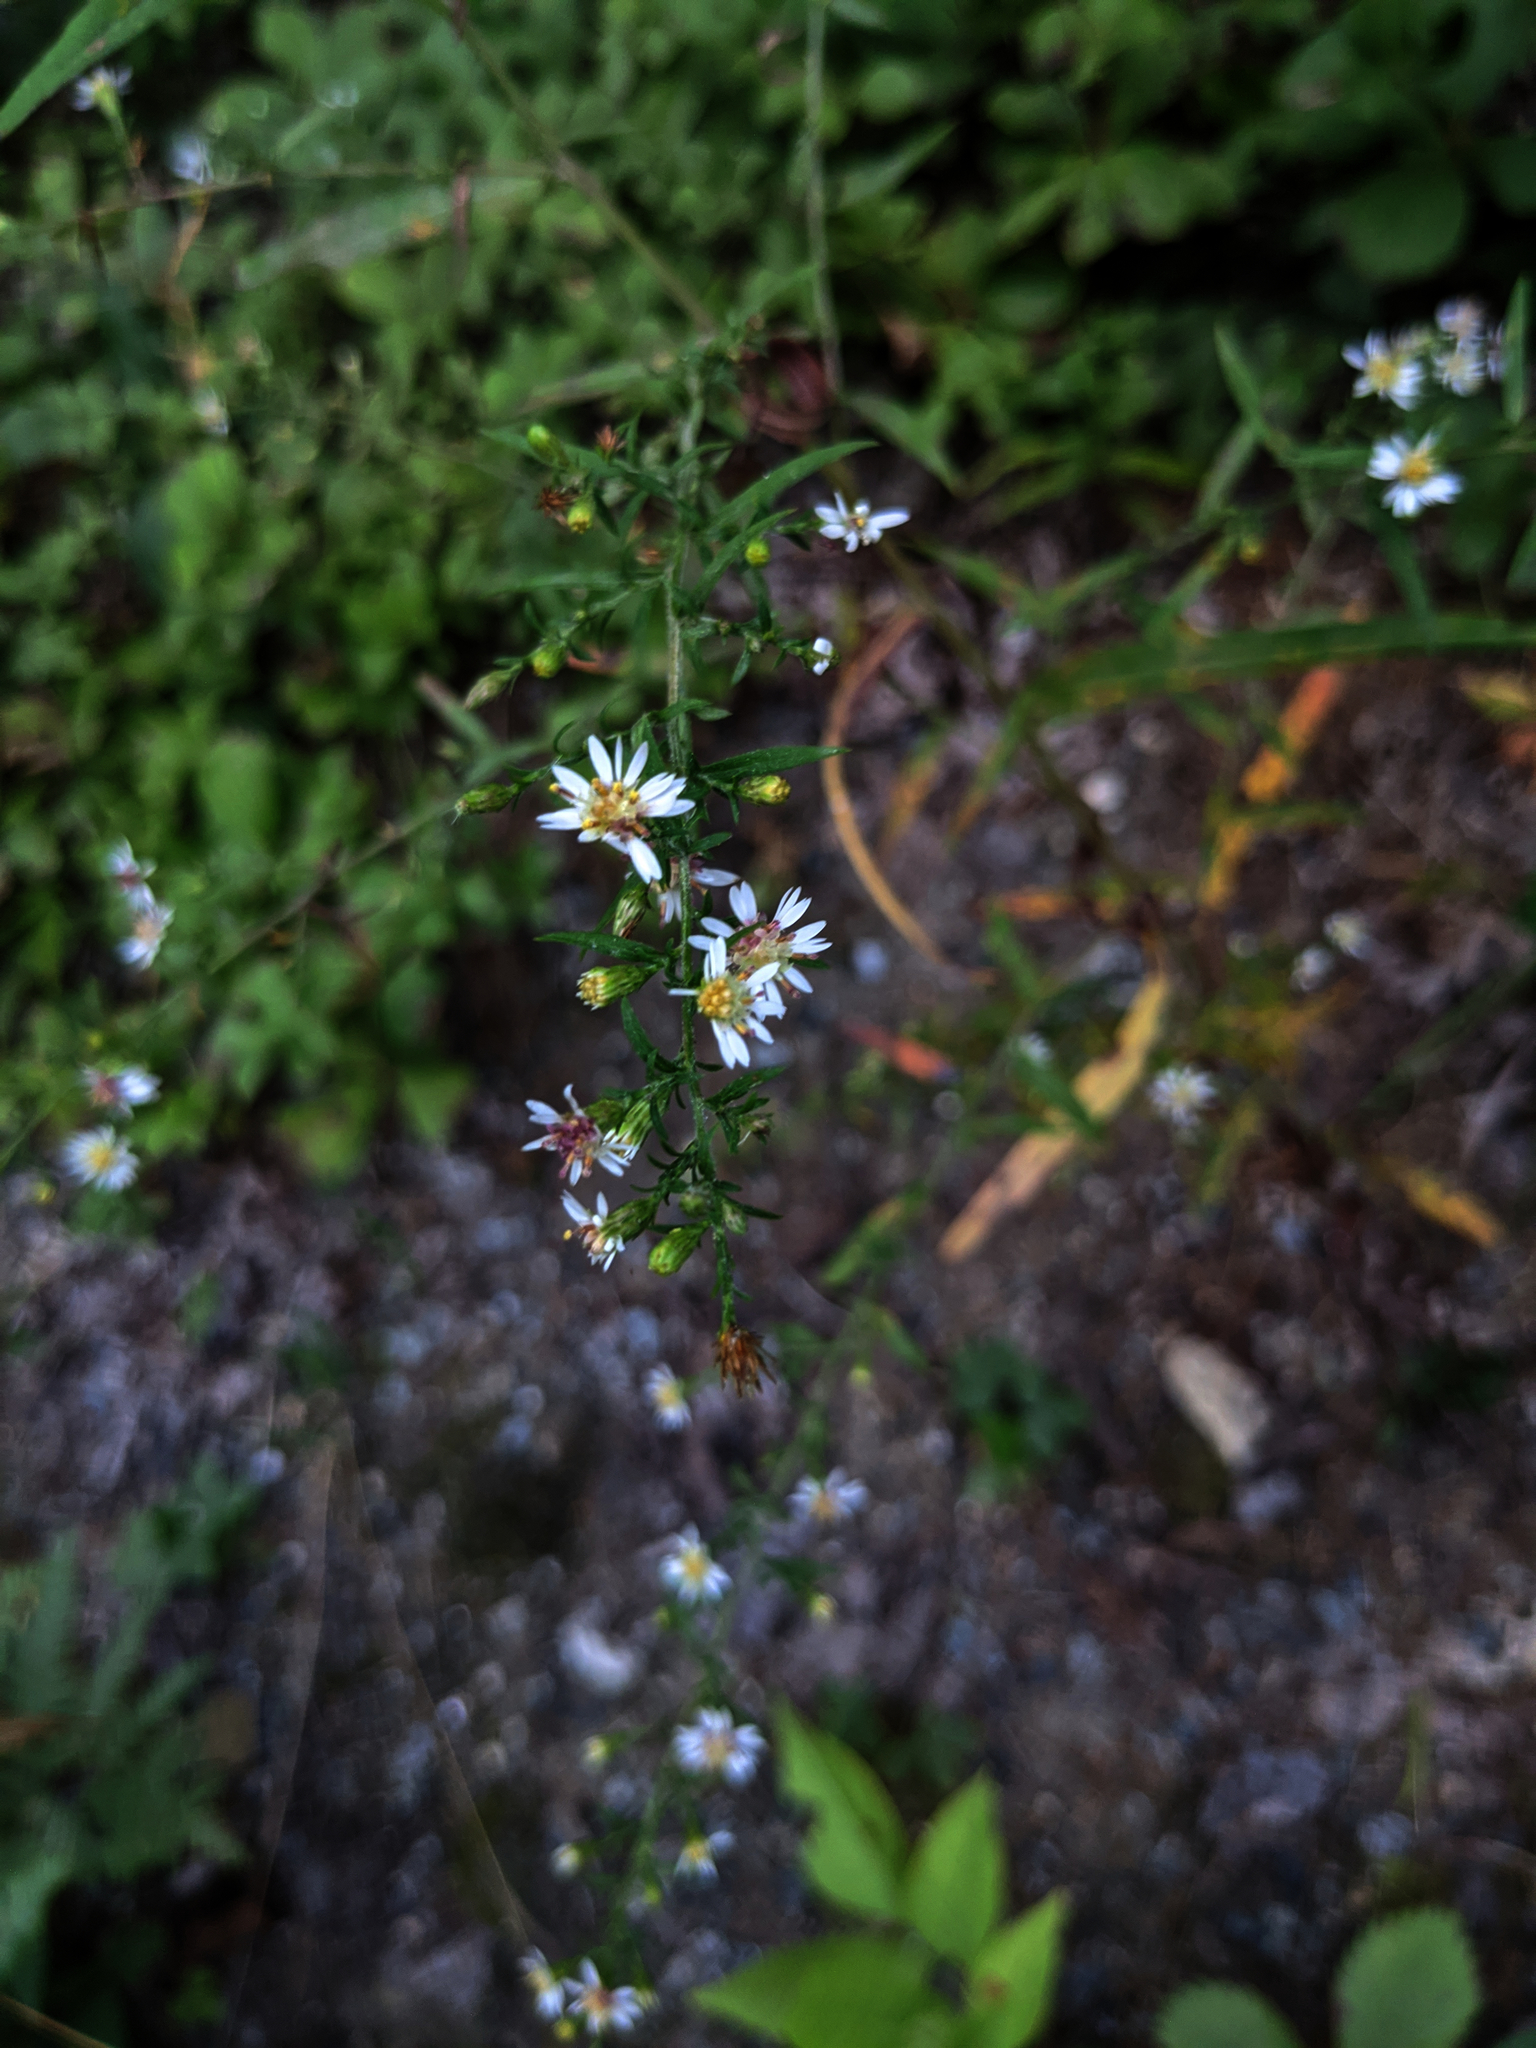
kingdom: Plantae
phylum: Tracheophyta
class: Magnoliopsida
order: Asterales
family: Asteraceae
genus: Symphyotrichum
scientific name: Symphyotrichum lateriflorum
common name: Calico aster
